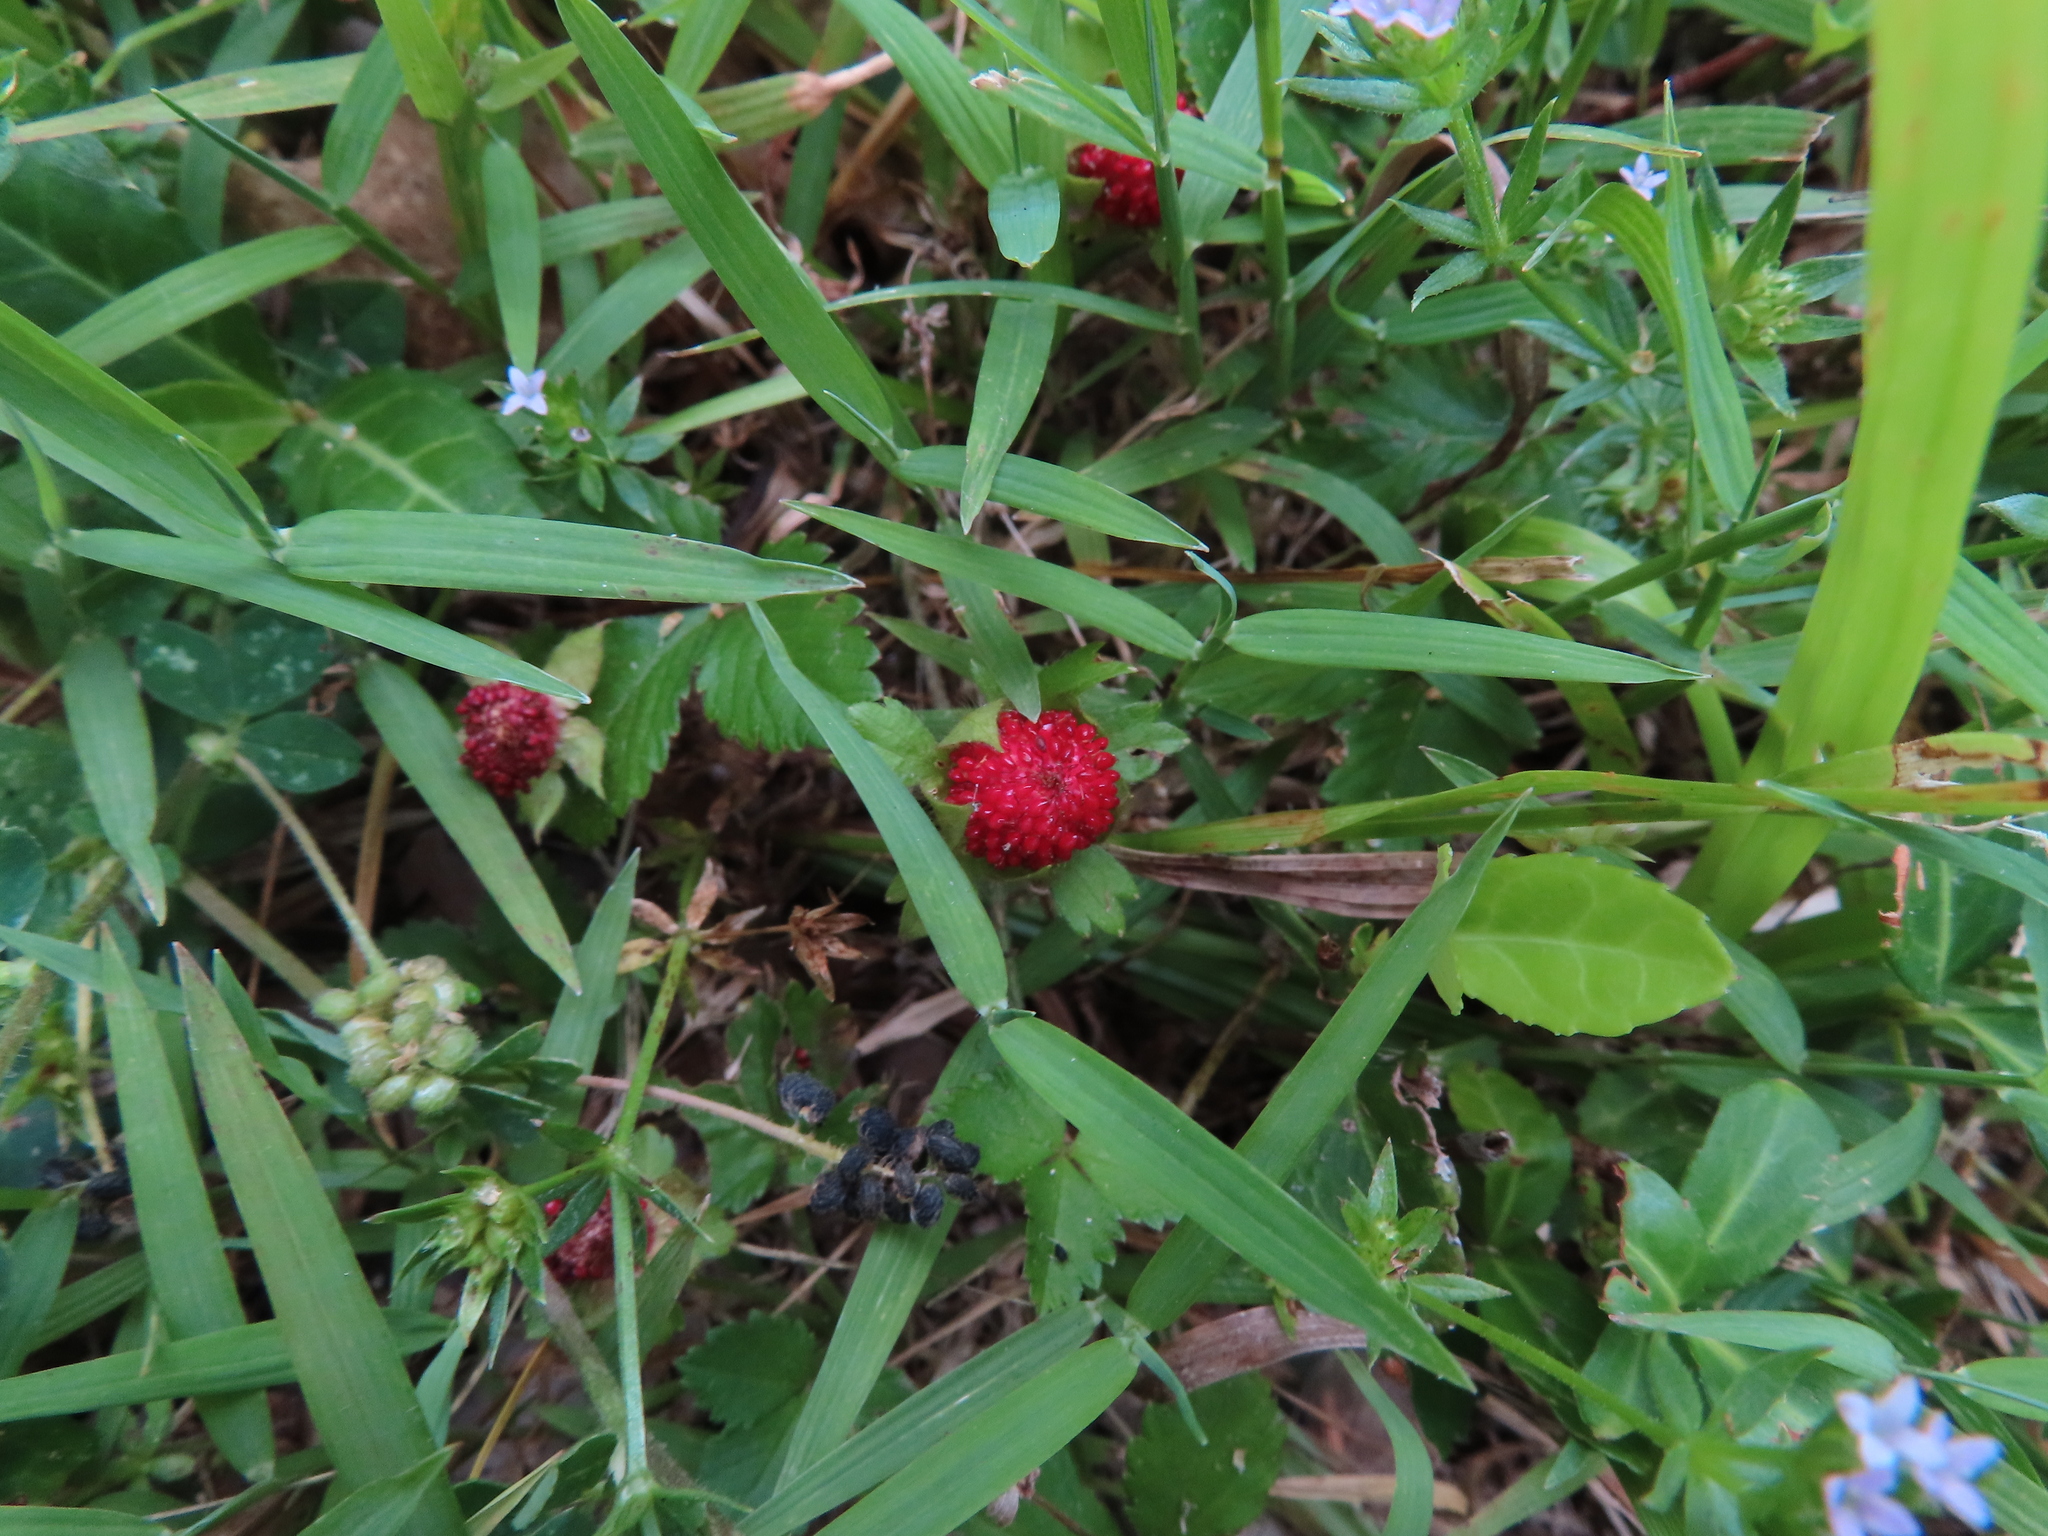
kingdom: Plantae
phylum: Tracheophyta
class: Magnoliopsida
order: Rosales
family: Rosaceae
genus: Potentilla
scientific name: Potentilla indica
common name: Yellow-flowered strawberry
